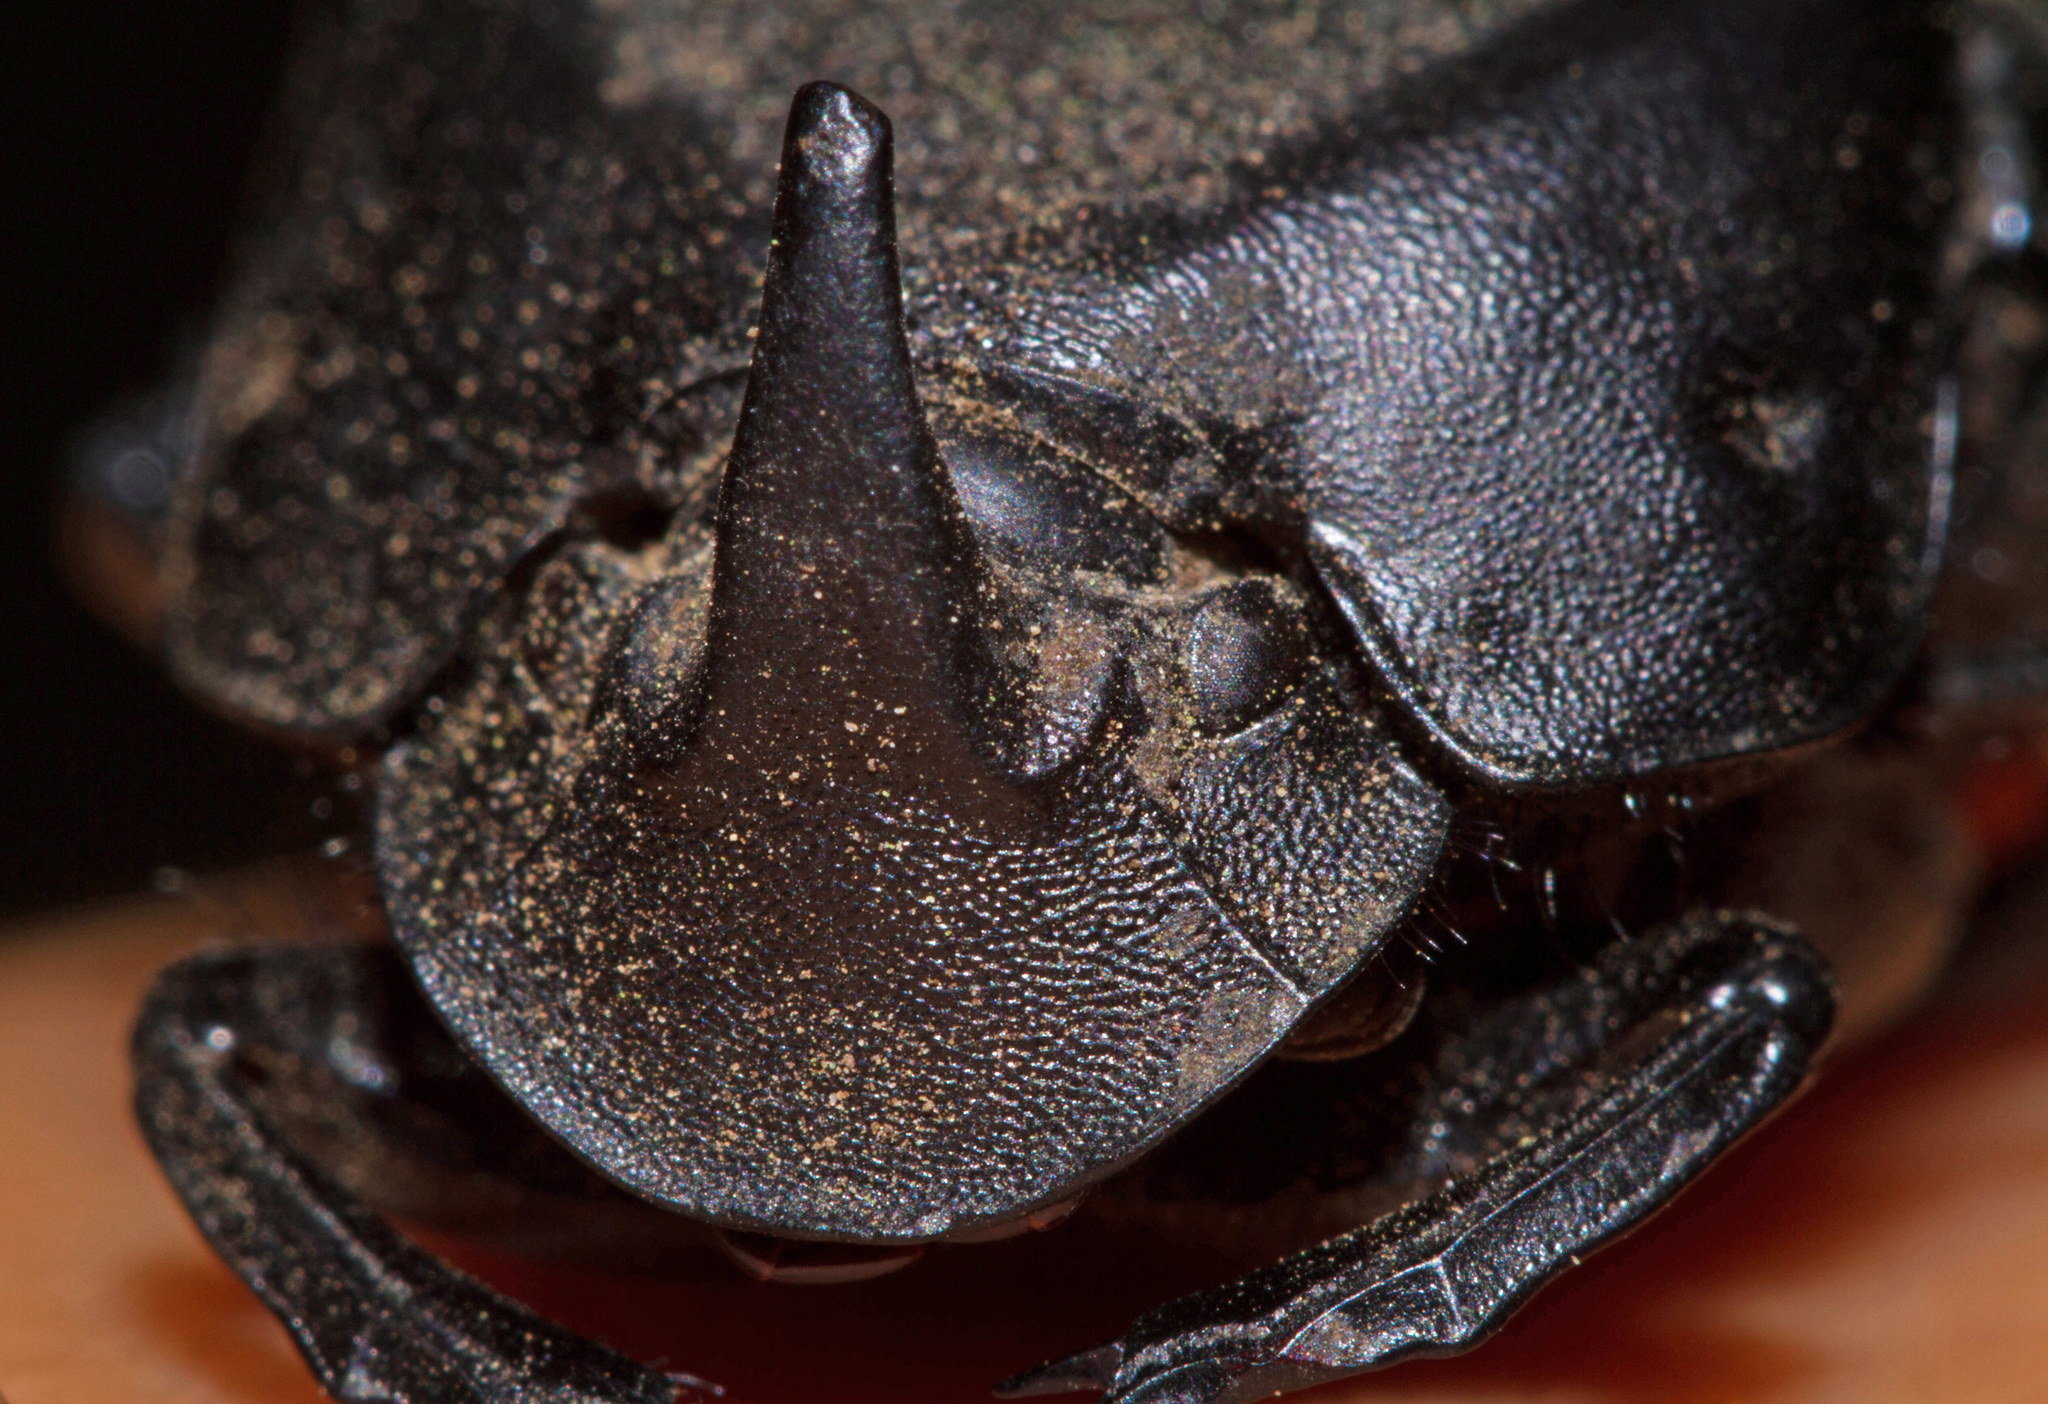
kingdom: Animalia
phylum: Arthropoda
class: Insecta
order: Coleoptera
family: Scarabaeidae
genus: Phanaeus
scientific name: Phanaeus texensis
